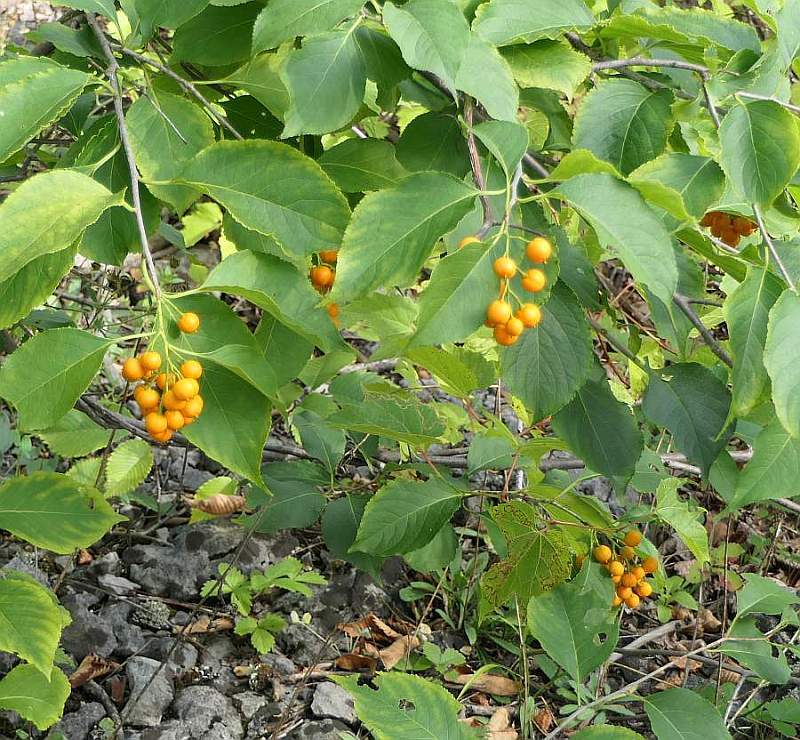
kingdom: Plantae
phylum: Tracheophyta
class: Magnoliopsida
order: Celastrales
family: Celastraceae
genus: Celastrus
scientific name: Celastrus scandens
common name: American bittersweet
